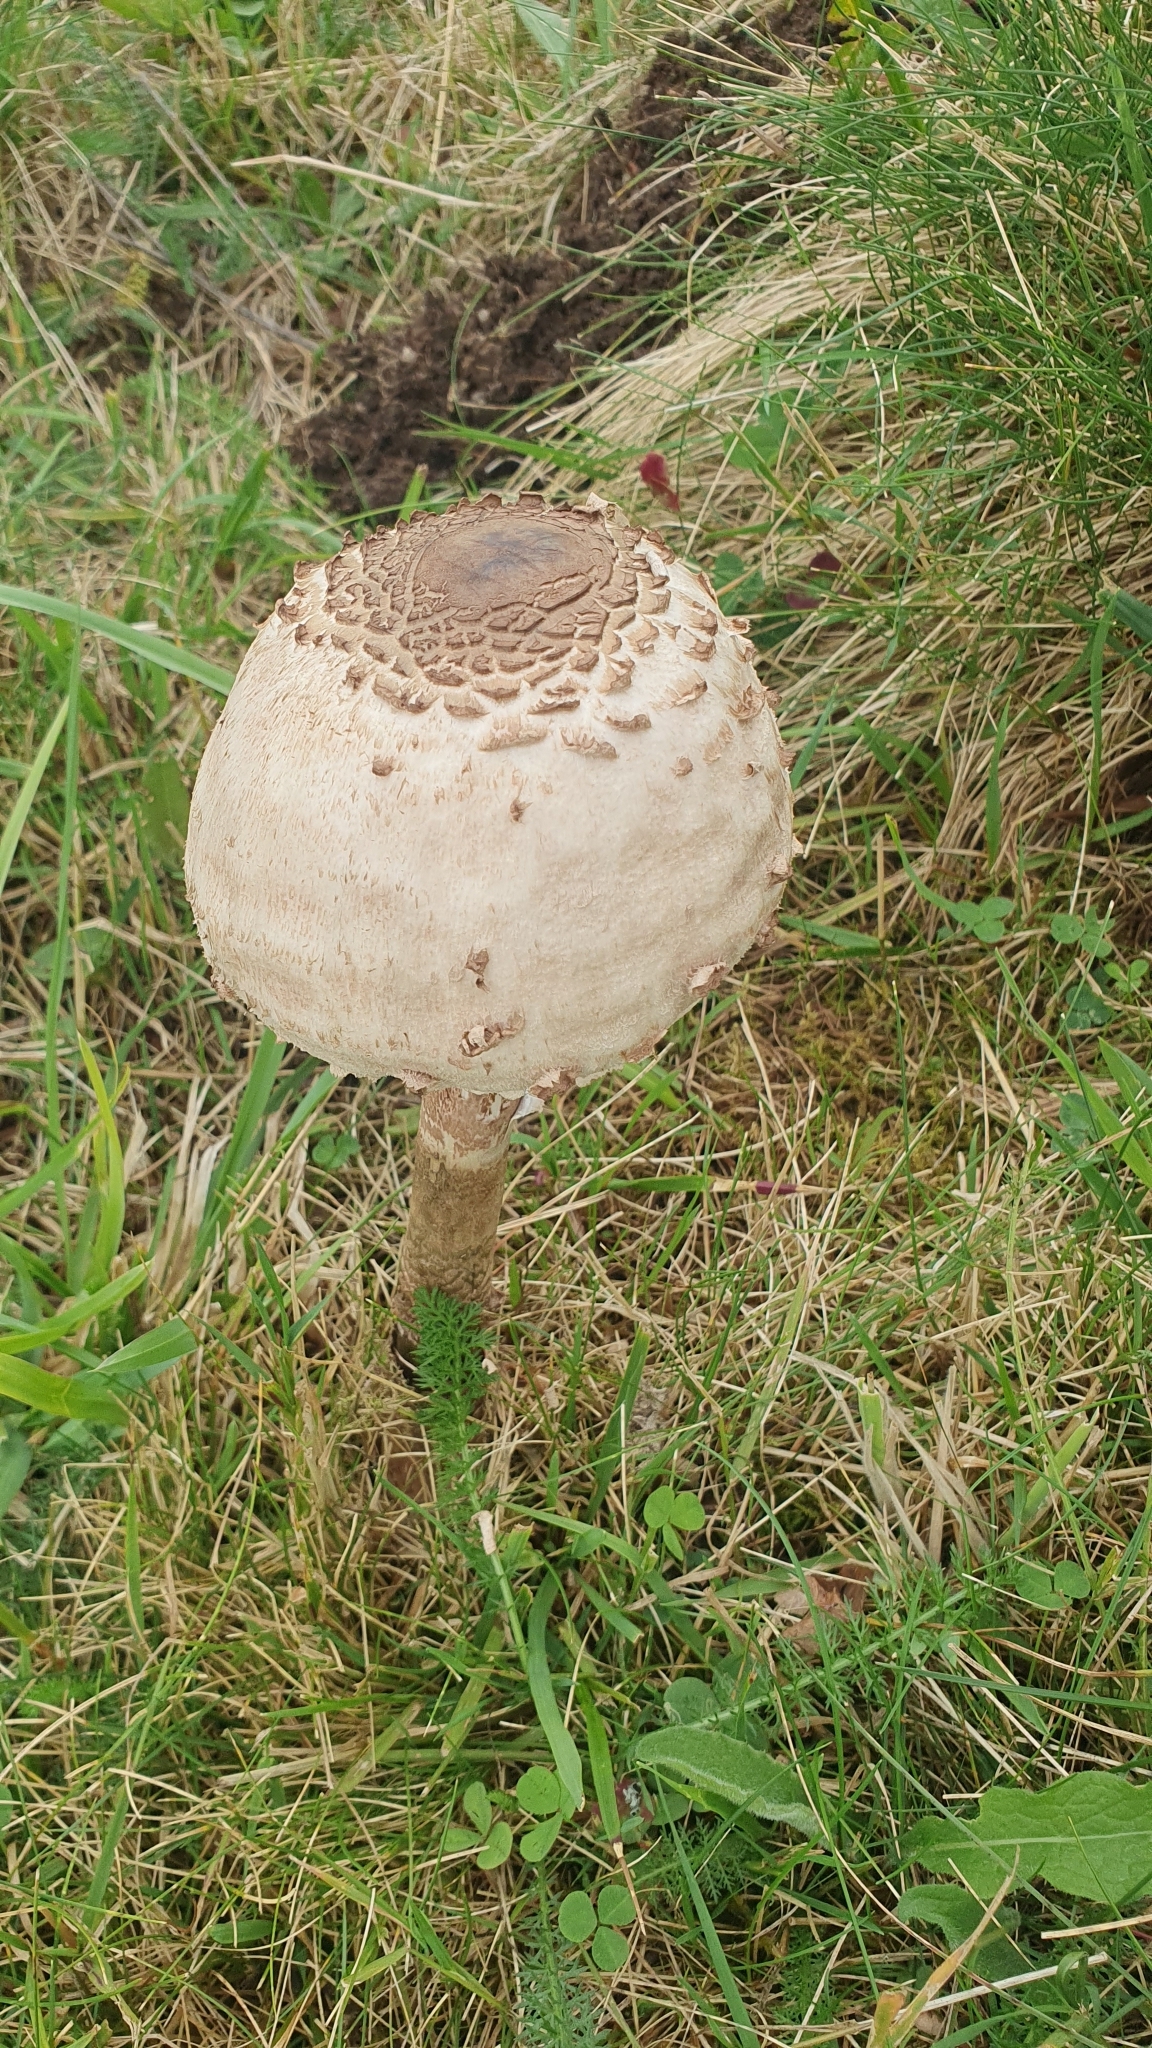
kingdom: Fungi
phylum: Basidiomycota
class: Agaricomycetes
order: Agaricales
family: Agaricaceae
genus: Macrolepiota
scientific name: Macrolepiota procera
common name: Parasol
